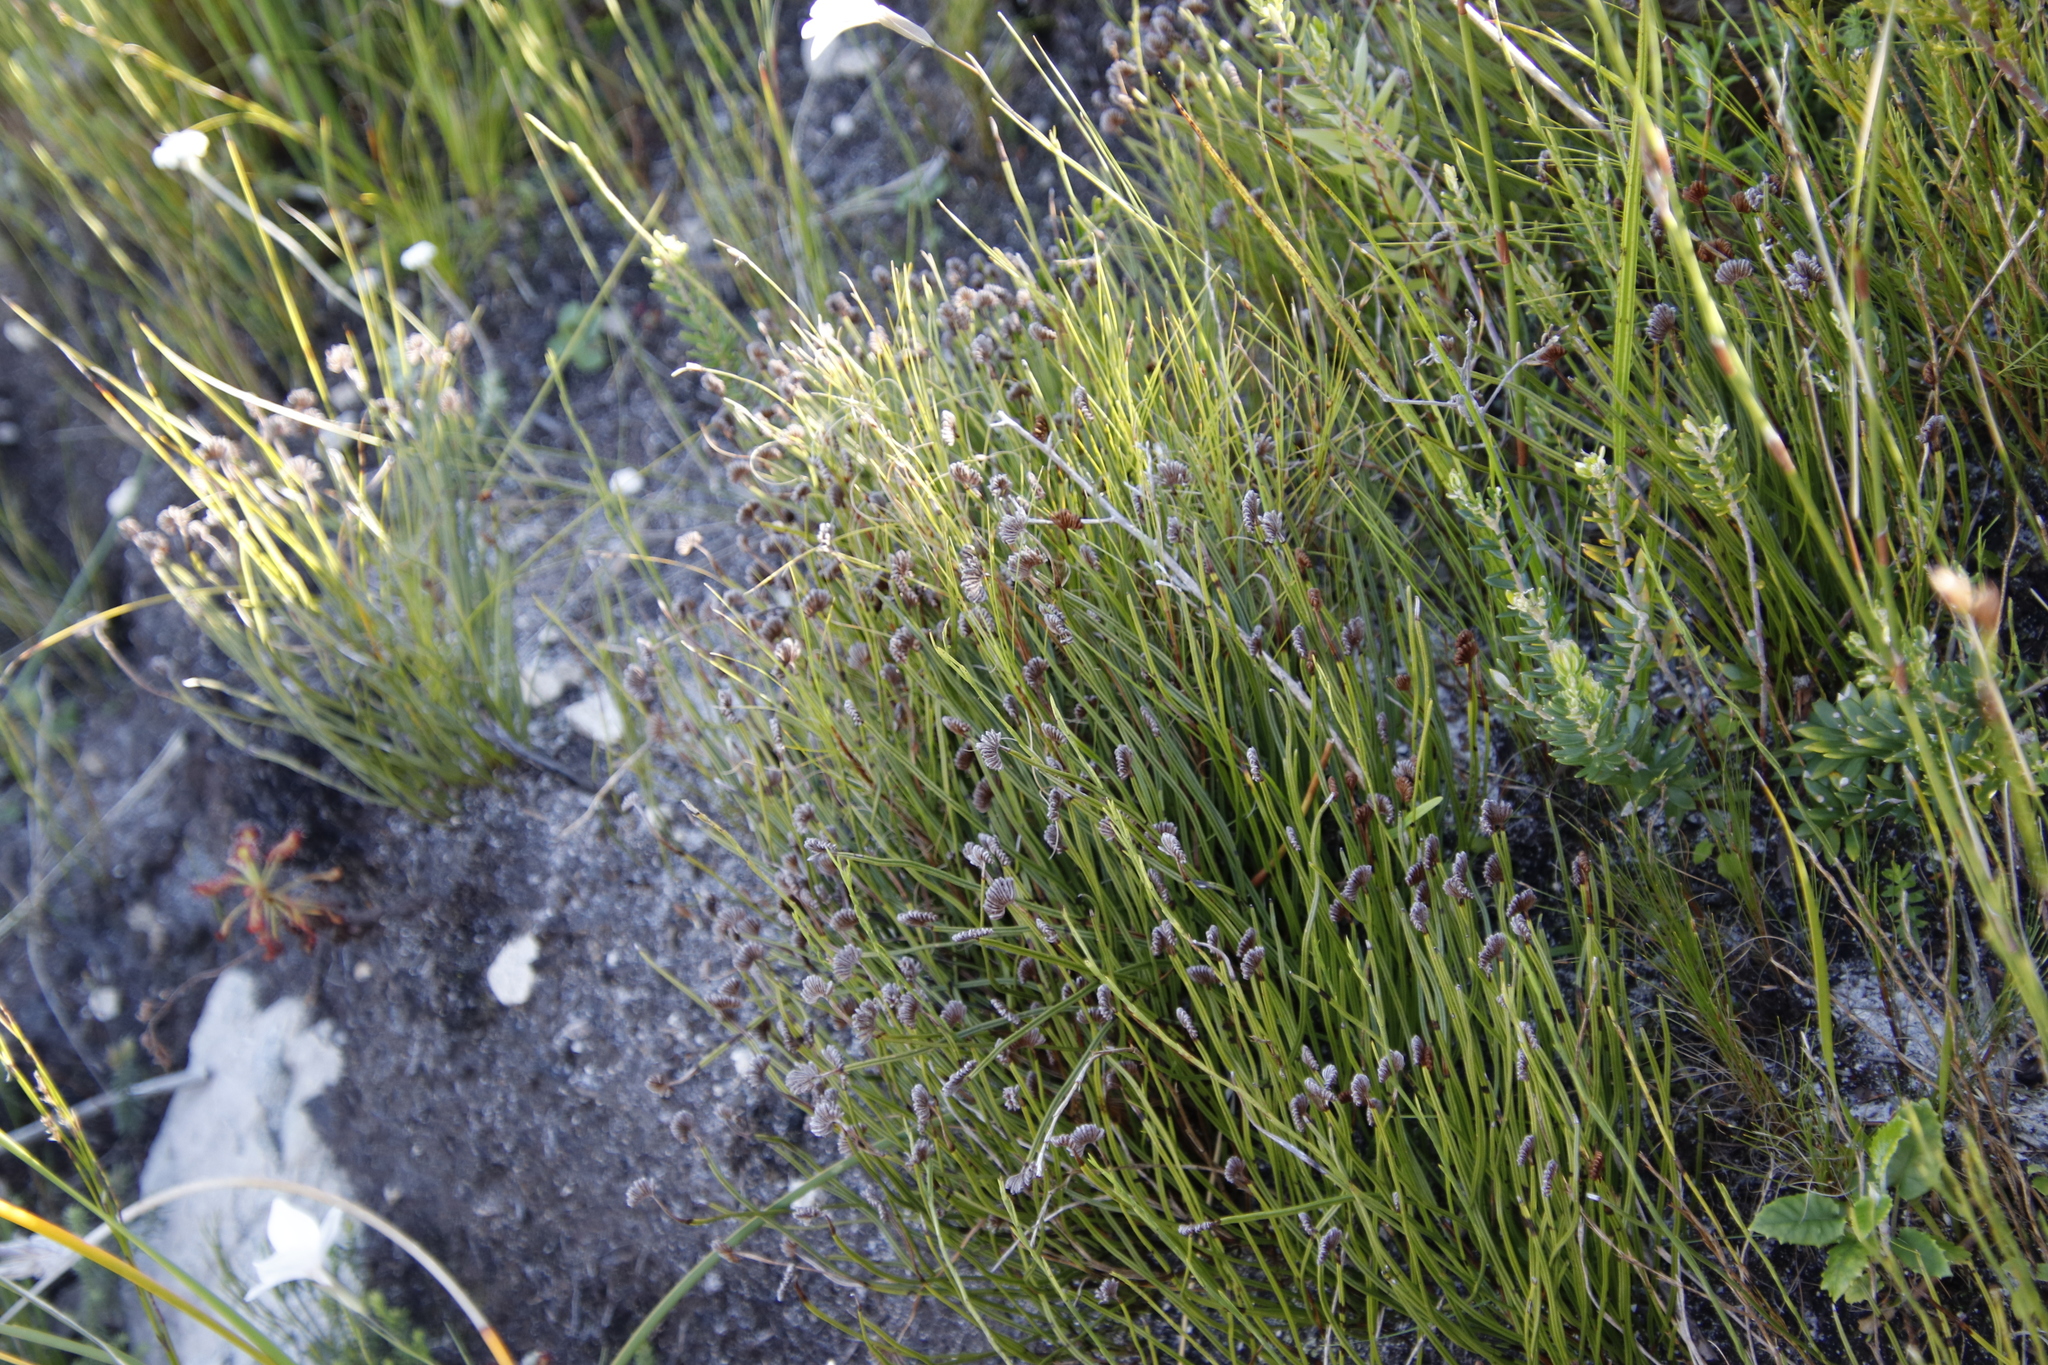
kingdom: Plantae
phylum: Tracheophyta
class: Polypodiopsida
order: Schizaeales
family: Schizaeaceae
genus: Schizaea
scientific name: Schizaea pectinata
